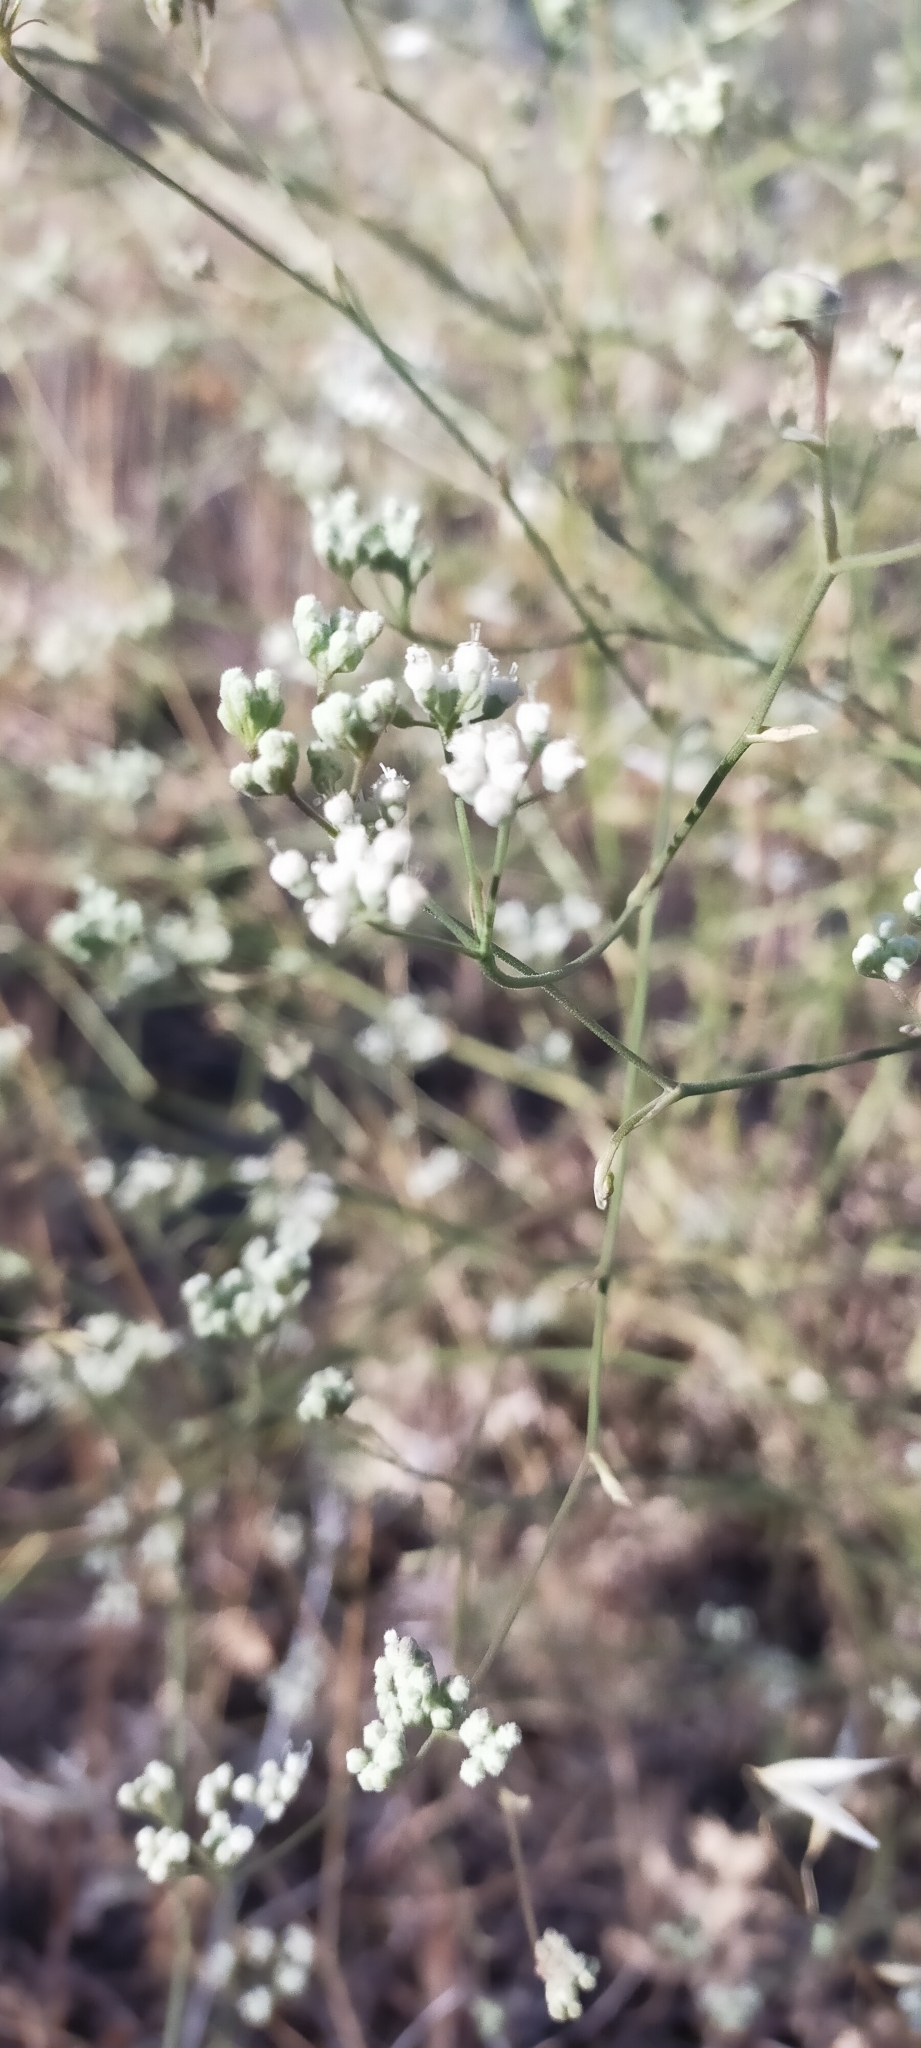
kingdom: Plantae
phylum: Tracheophyta
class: Magnoliopsida
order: Apiales
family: Apiaceae
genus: Pimpinella
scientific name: Pimpinella villosa
